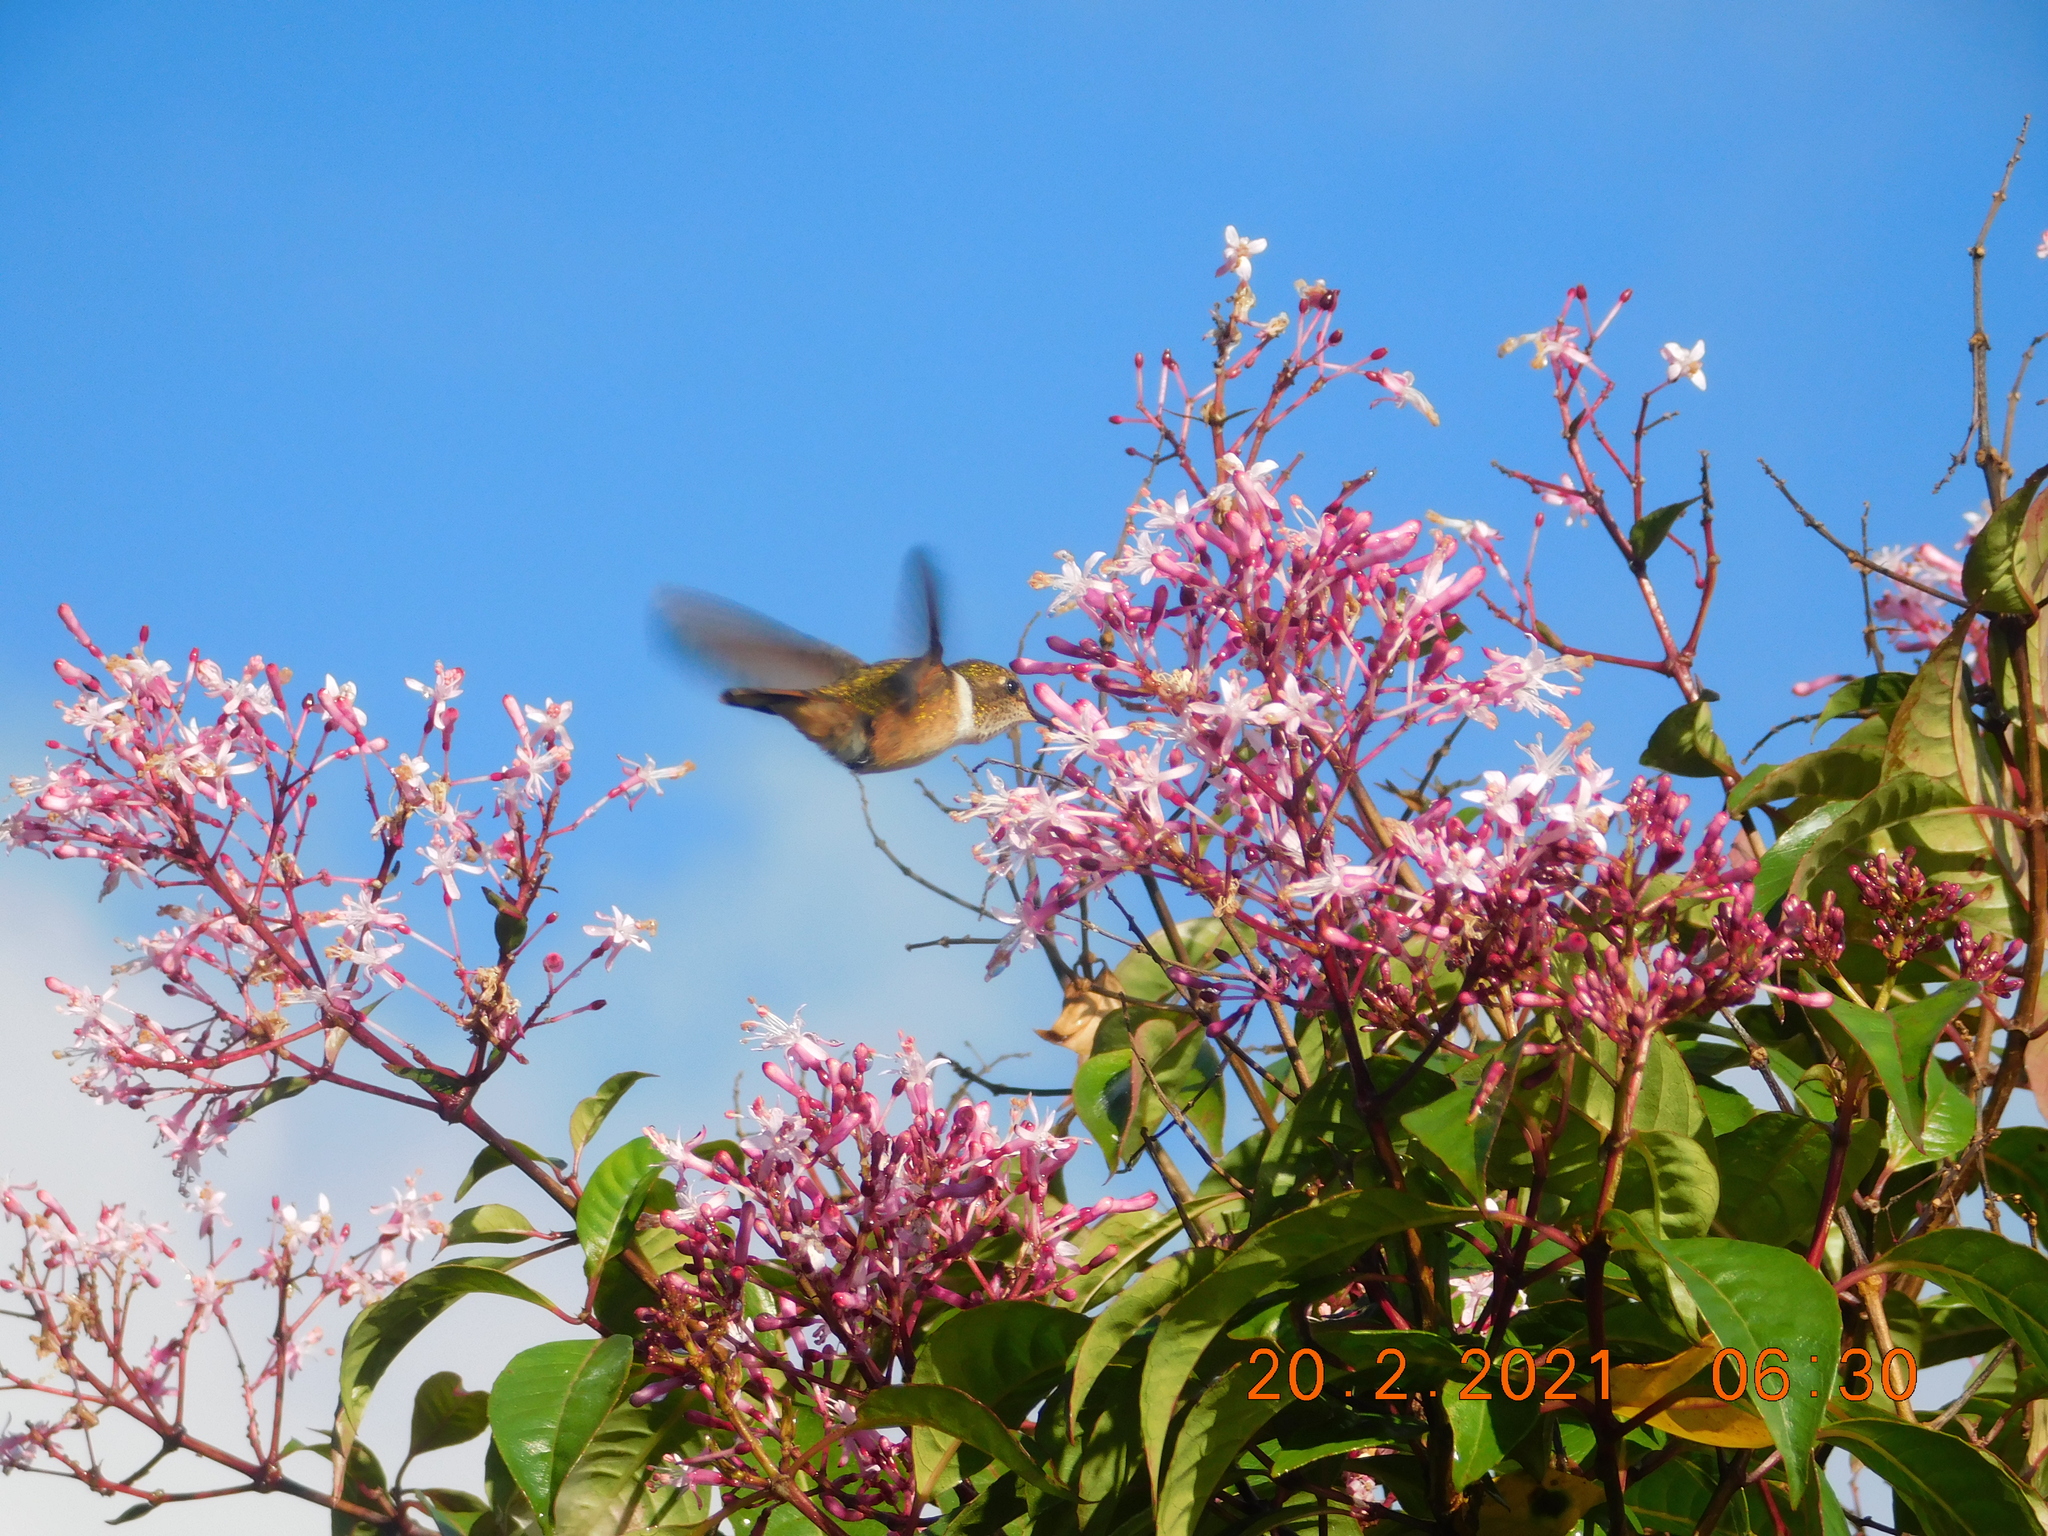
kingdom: Animalia
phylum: Chordata
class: Aves
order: Apodiformes
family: Trochilidae
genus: Selasphorus
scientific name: Selasphorus scintilla
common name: Scintillant hummingbird
